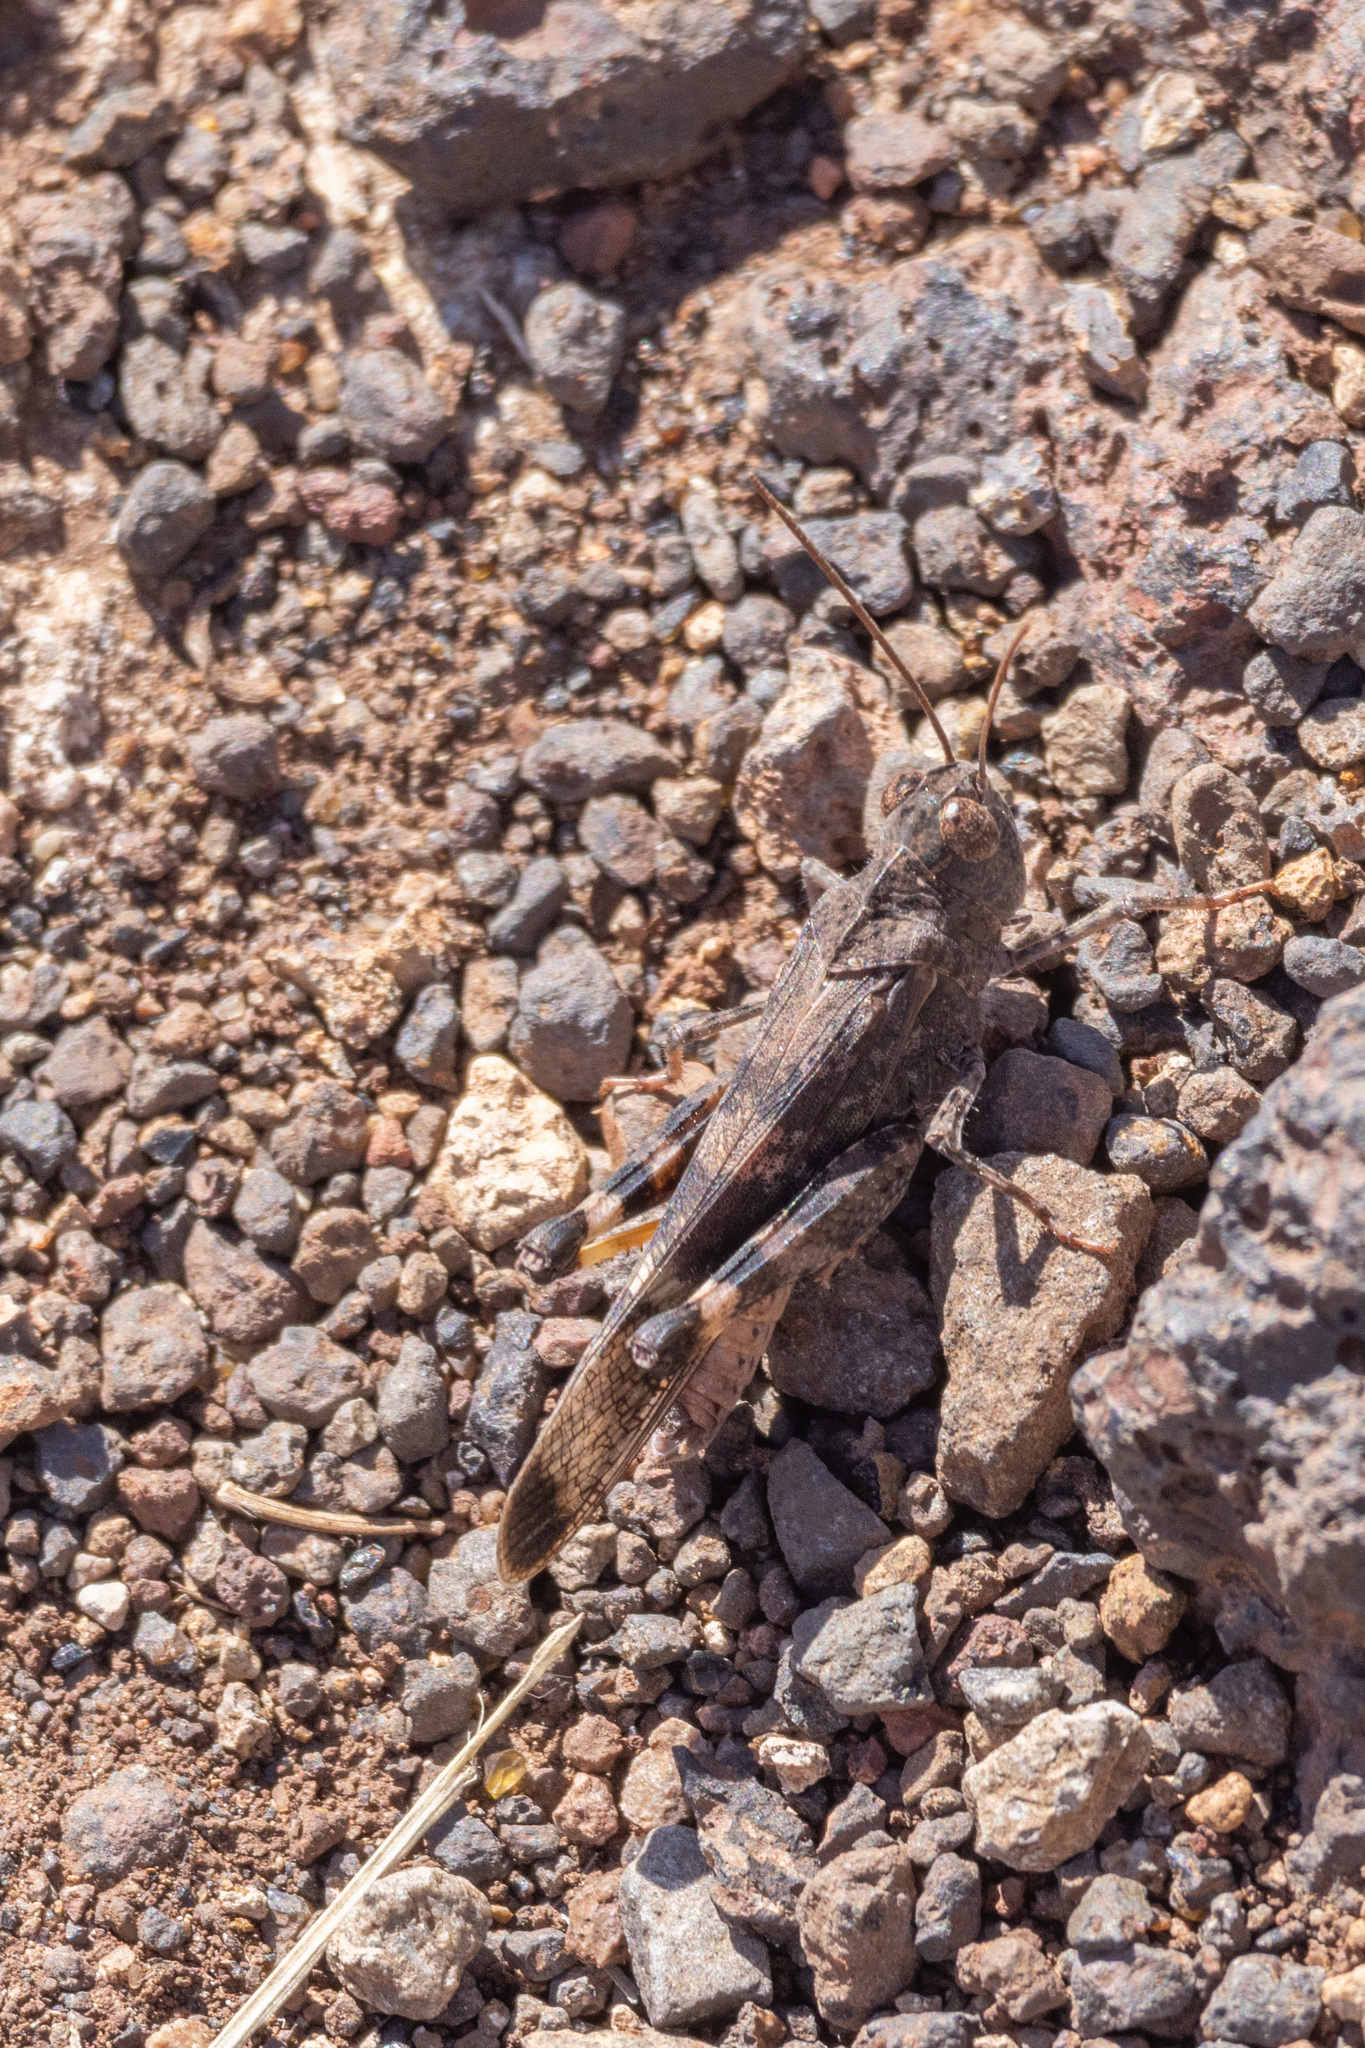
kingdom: Animalia
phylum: Arthropoda
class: Insecta
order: Orthoptera
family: Acrididae
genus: Scintharista
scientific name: Scintharista notabilis
